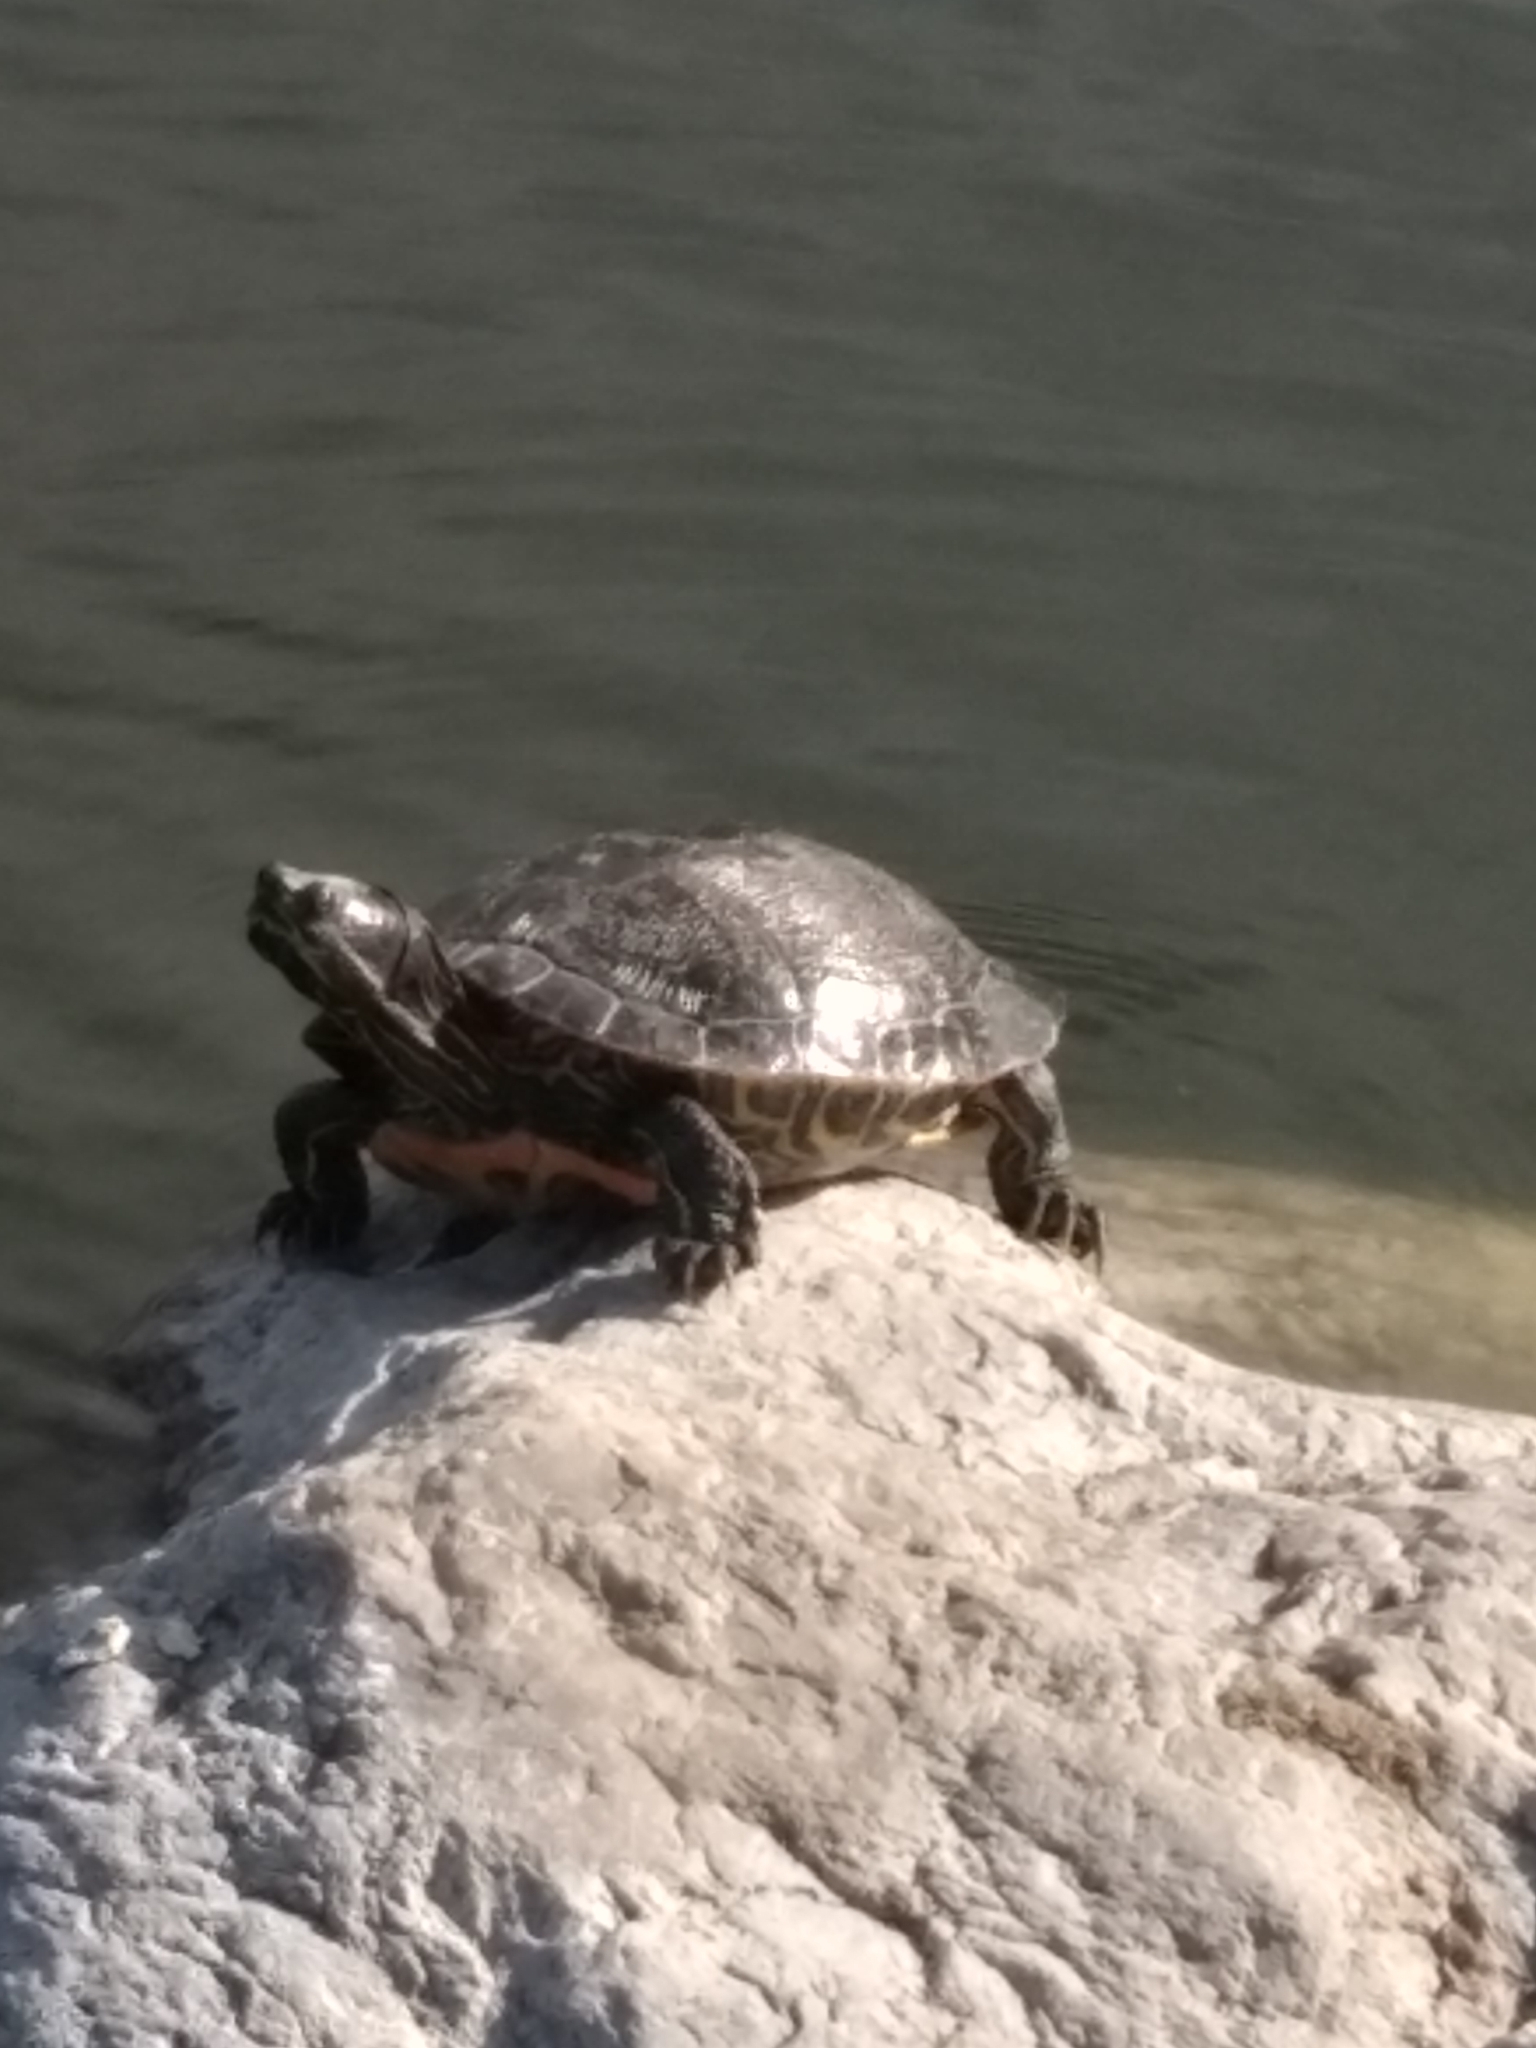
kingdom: Animalia
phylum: Chordata
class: Testudines
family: Emydidae
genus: Trachemys
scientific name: Trachemys scripta
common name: Slider
